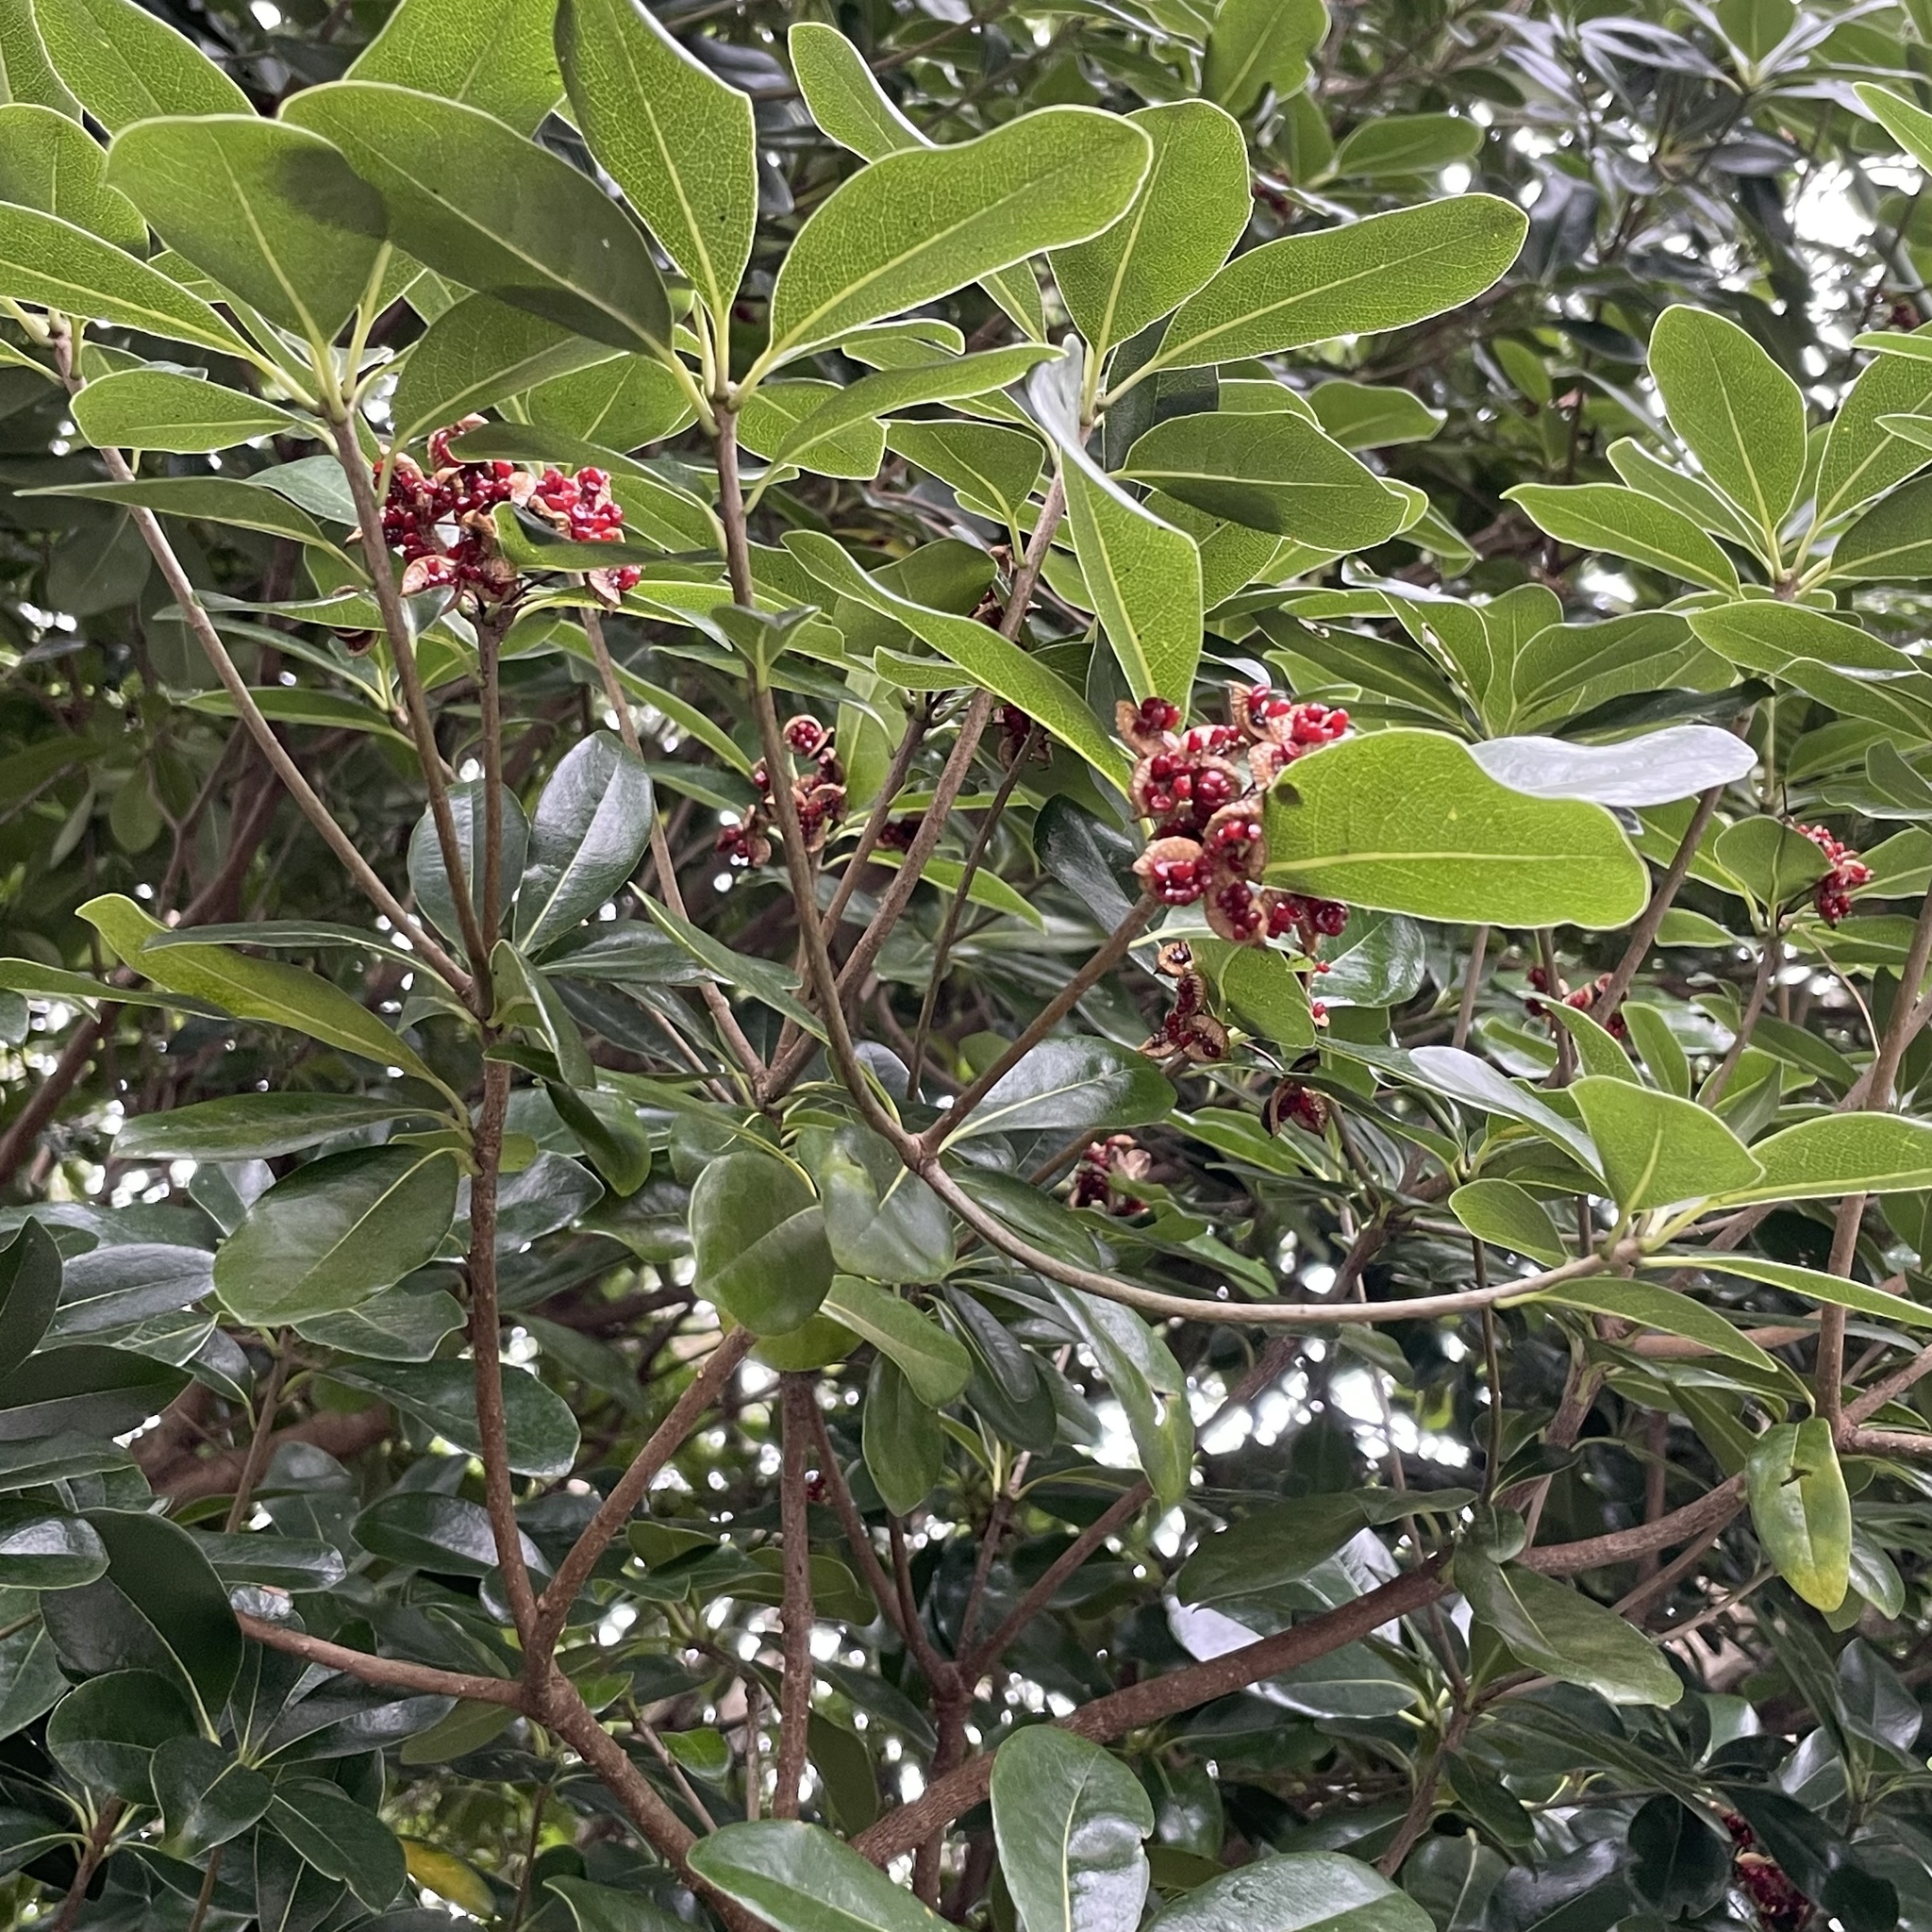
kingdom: Plantae
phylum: Tracheophyta
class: Magnoliopsida
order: Apiales
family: Pittosporaceae
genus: Pittosporum
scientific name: Pittosporum tobira
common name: Japanese cheesewood
